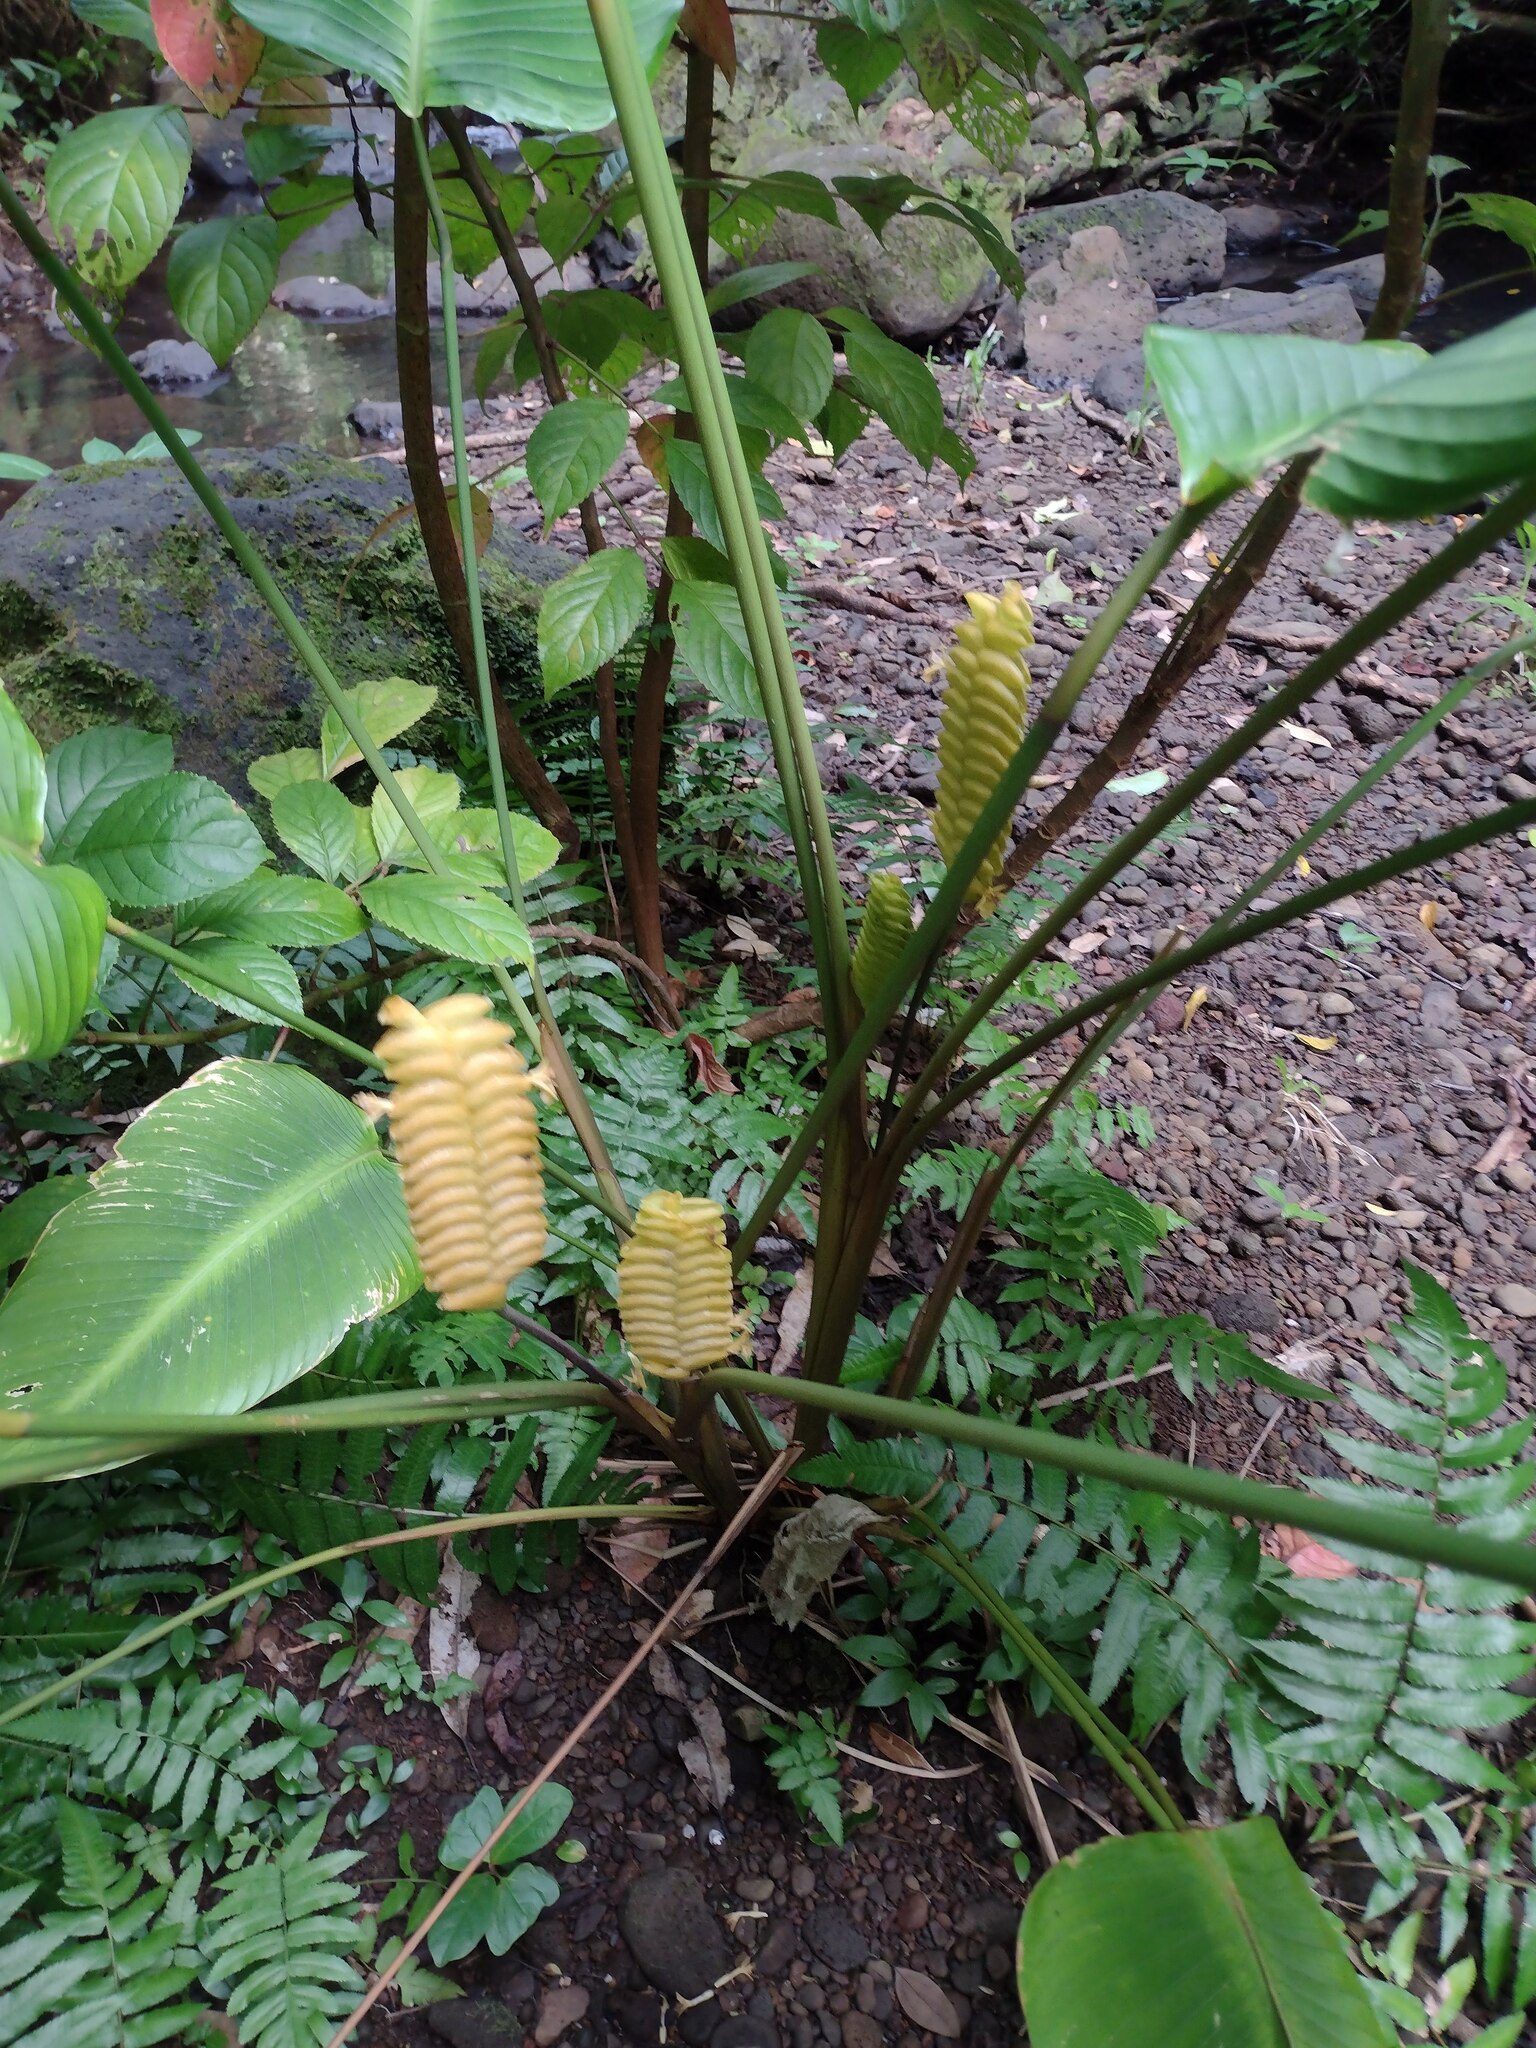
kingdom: Plantae
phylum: Tracheophyta
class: Liliopsida
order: Zingiberales
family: Marantaceae
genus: Calathea
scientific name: Calathea crotalifera
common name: Rattlesnake plant
